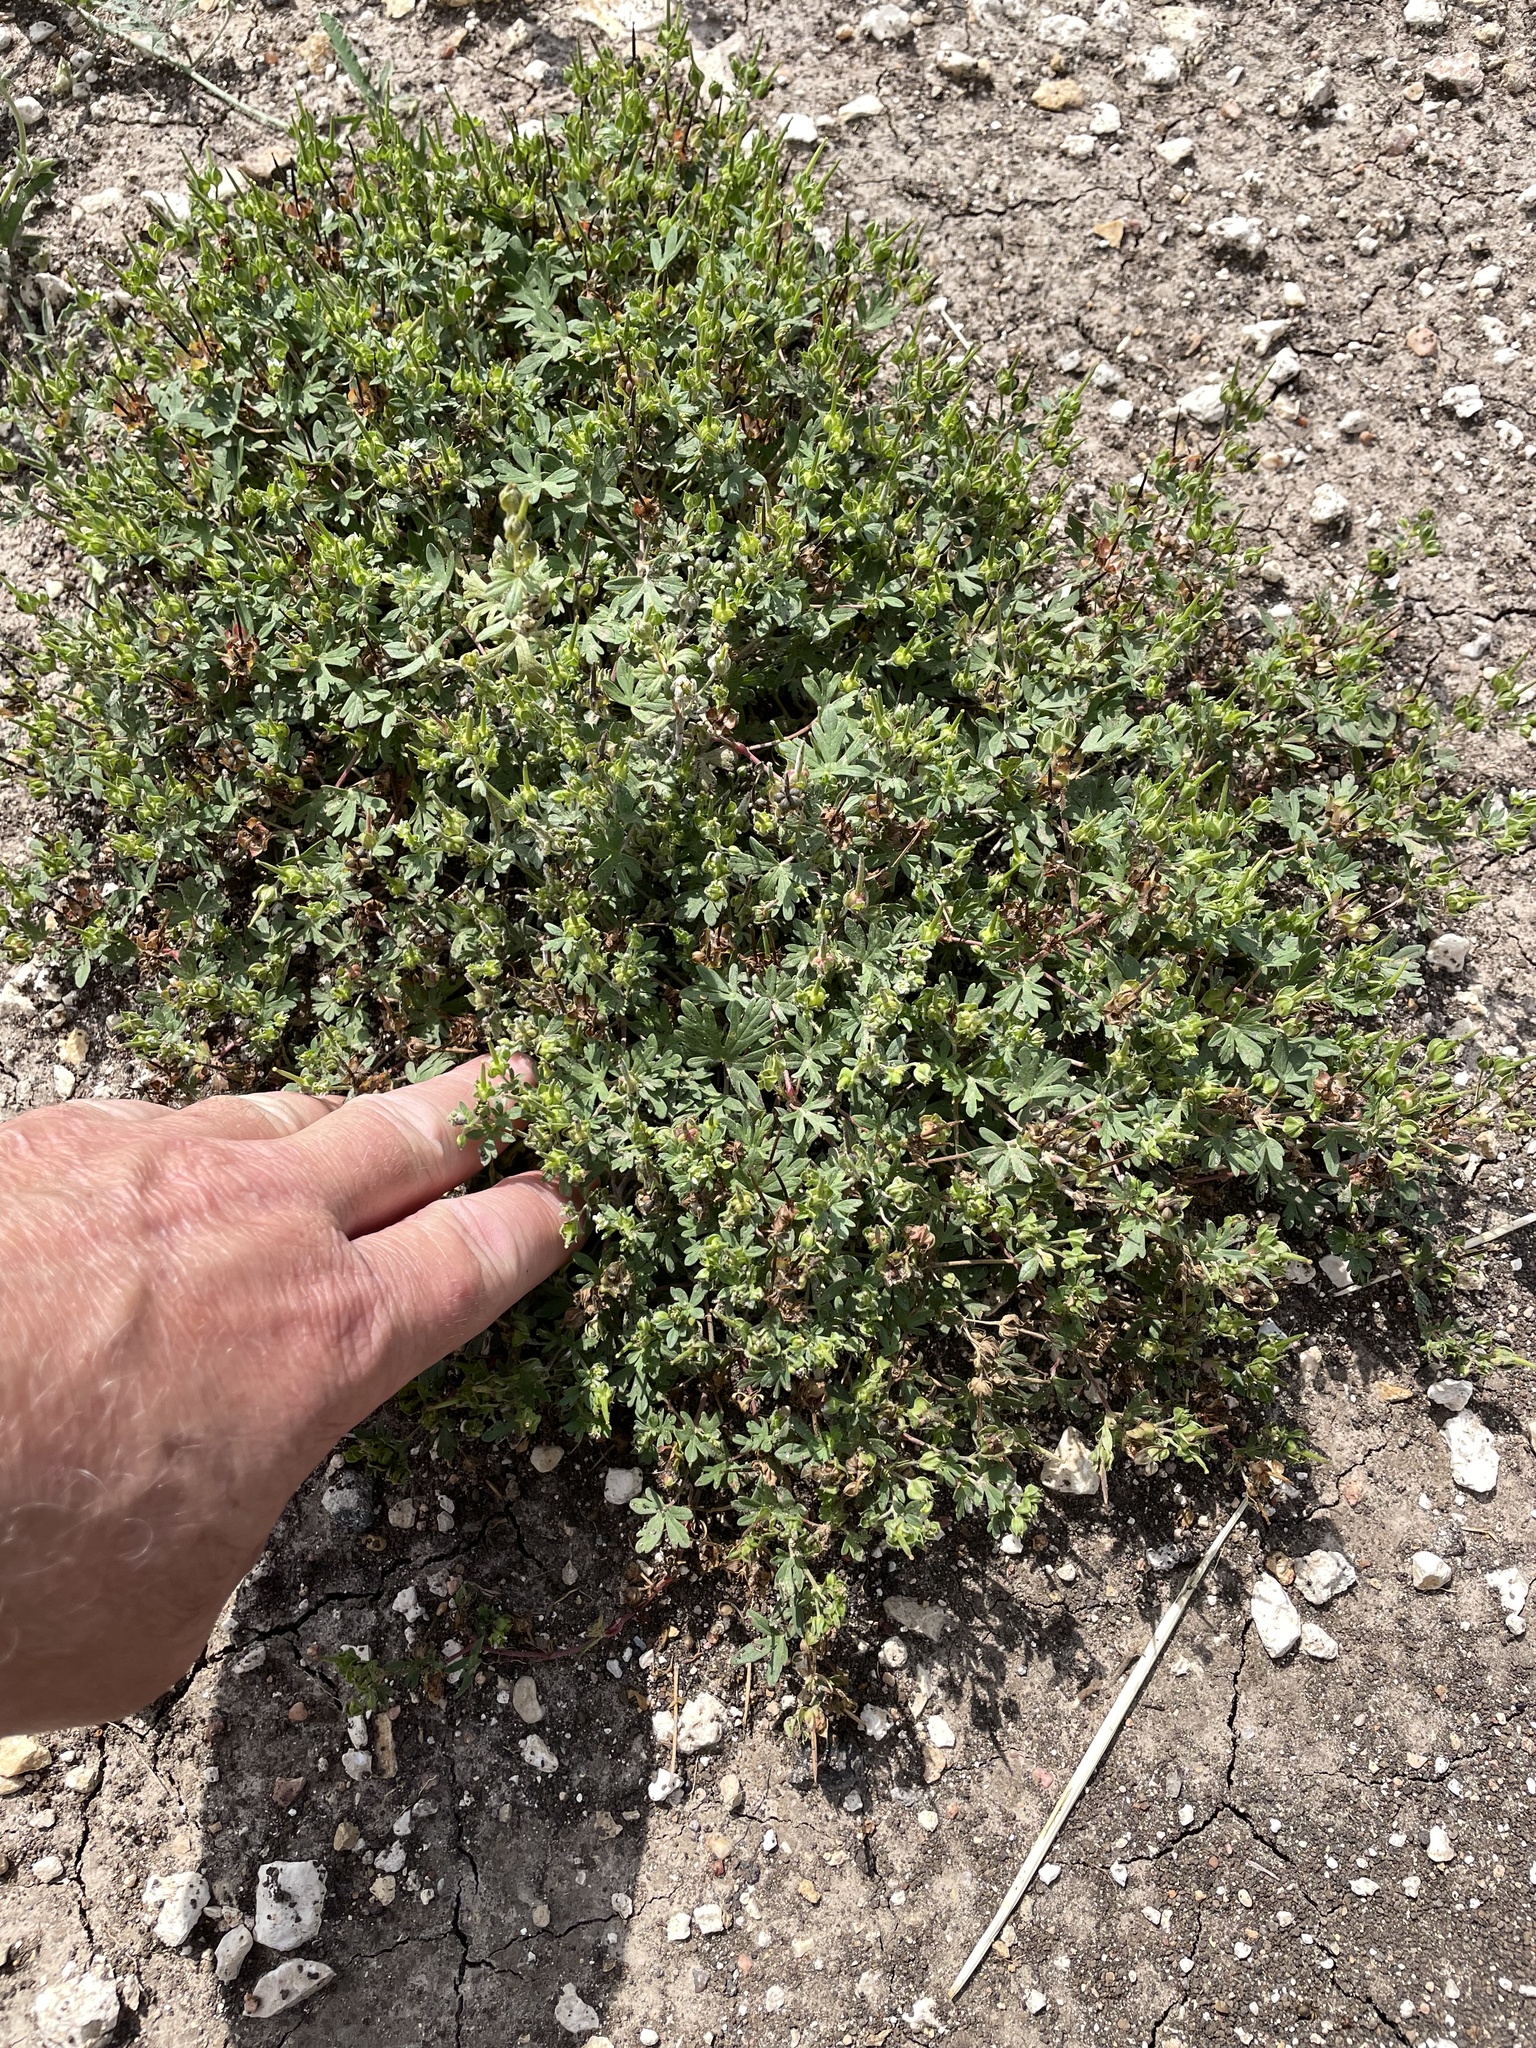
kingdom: Plantae
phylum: Tracheophyta
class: Magnoliopsida
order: Geraniales
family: Geraniaceae
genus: Geranium
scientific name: Geranium texanum
